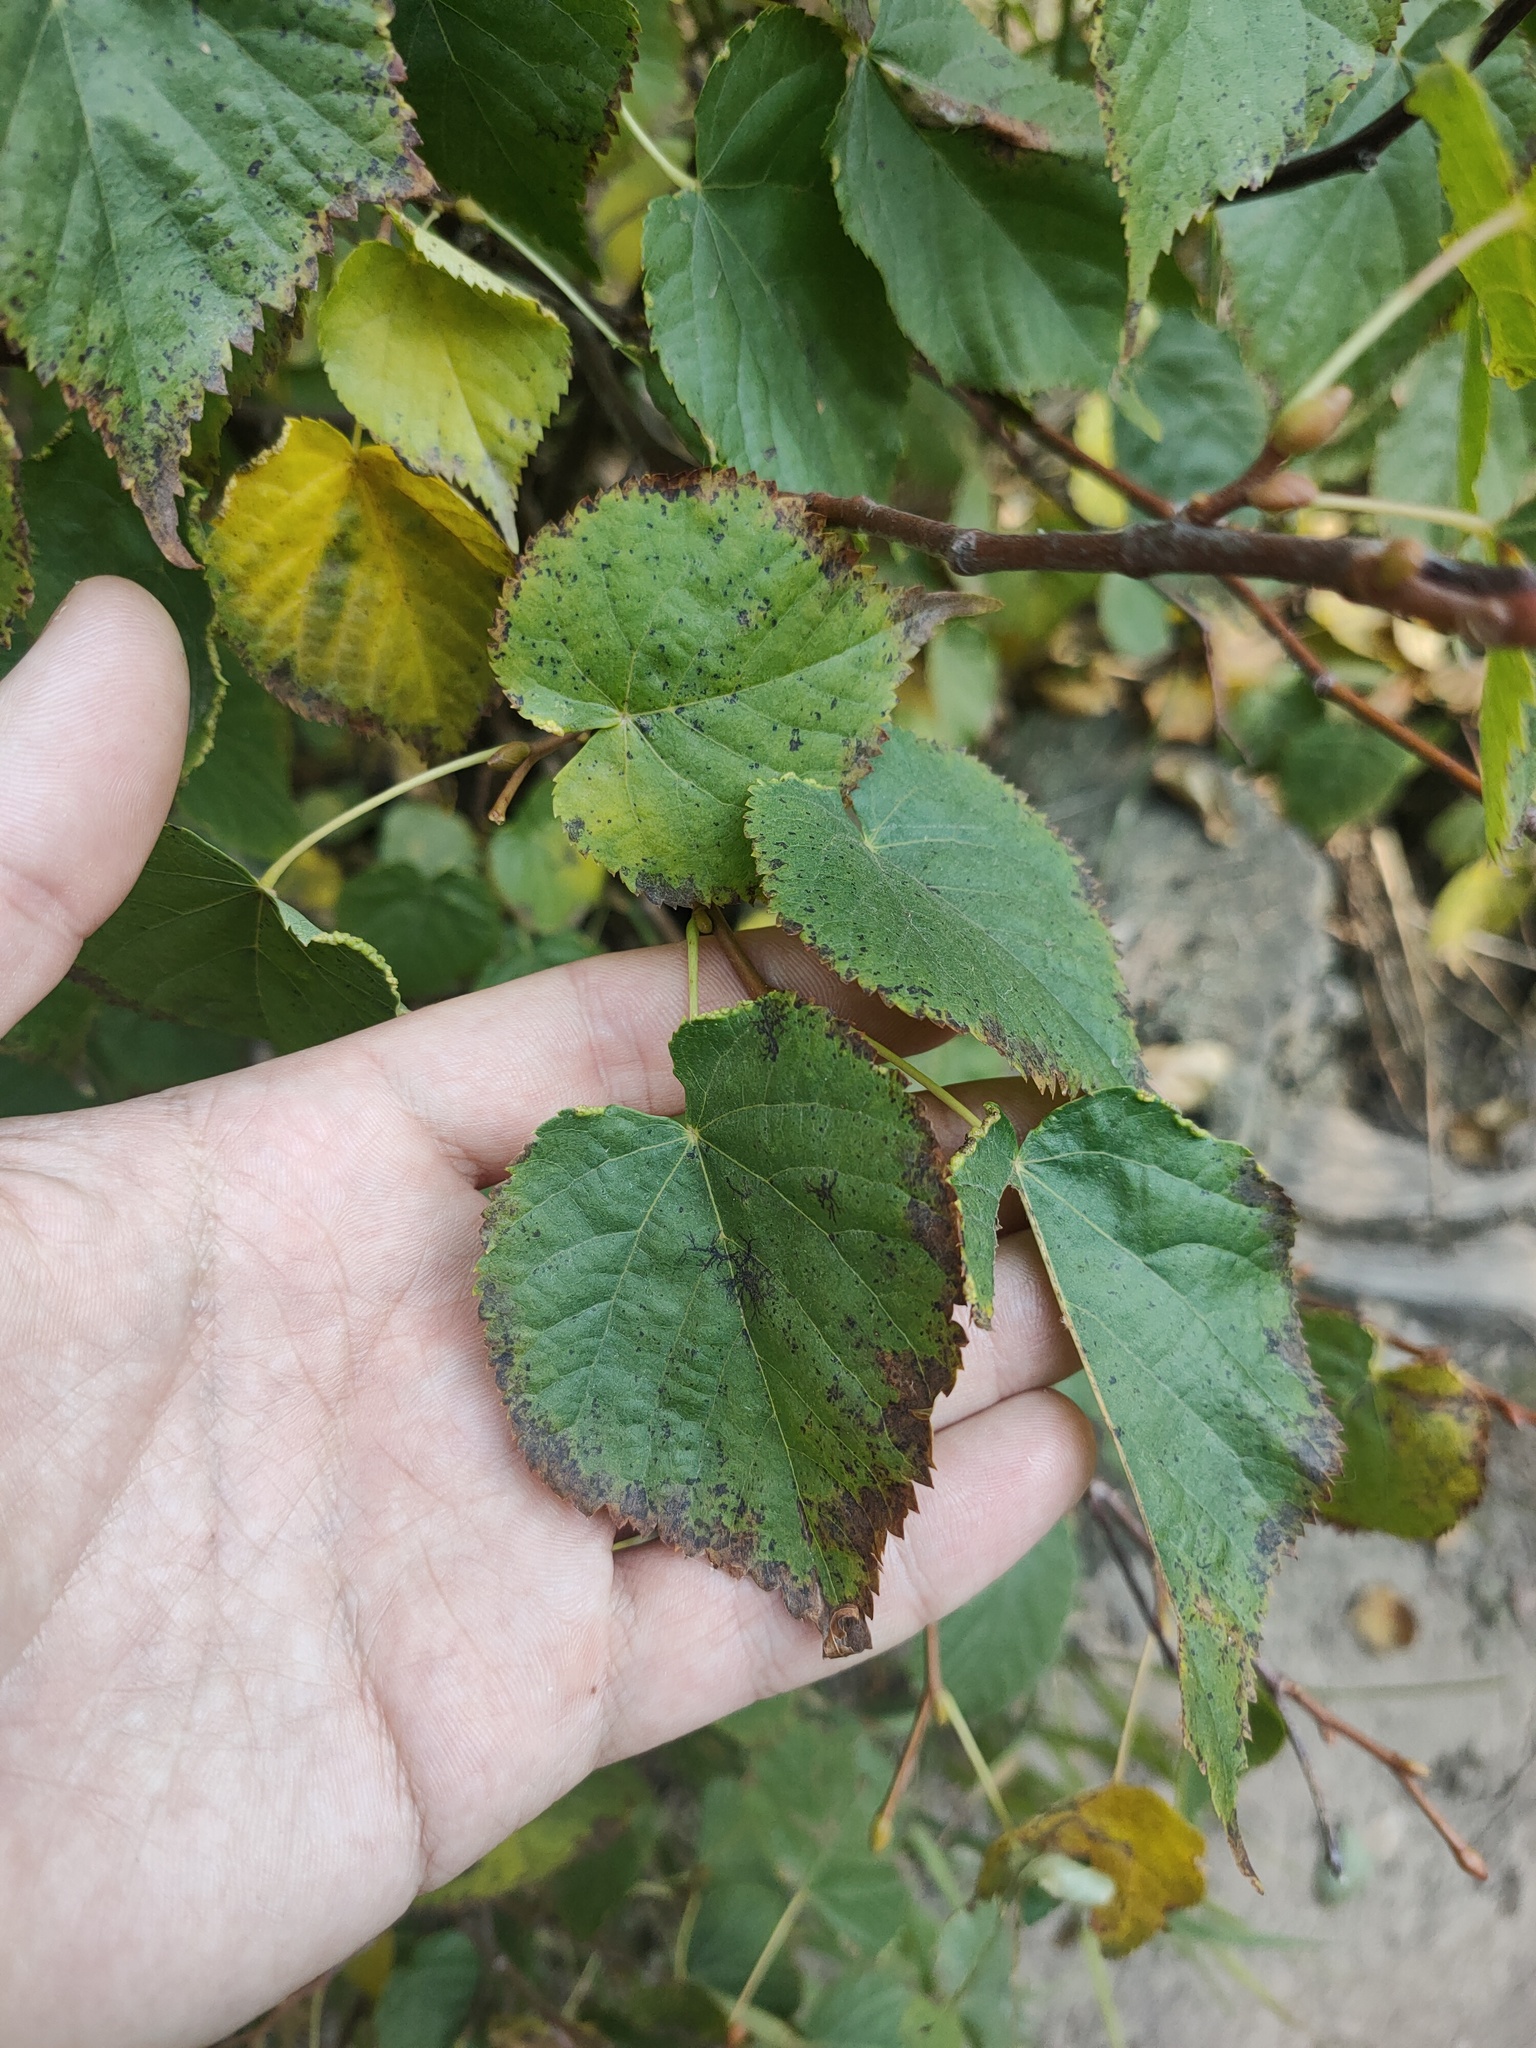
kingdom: Plantae
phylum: Tracheophyta
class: Magnoliopsida
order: Malvales
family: Malvaceae
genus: Tilia
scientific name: Tilia cordata
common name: Small-leaved lime
